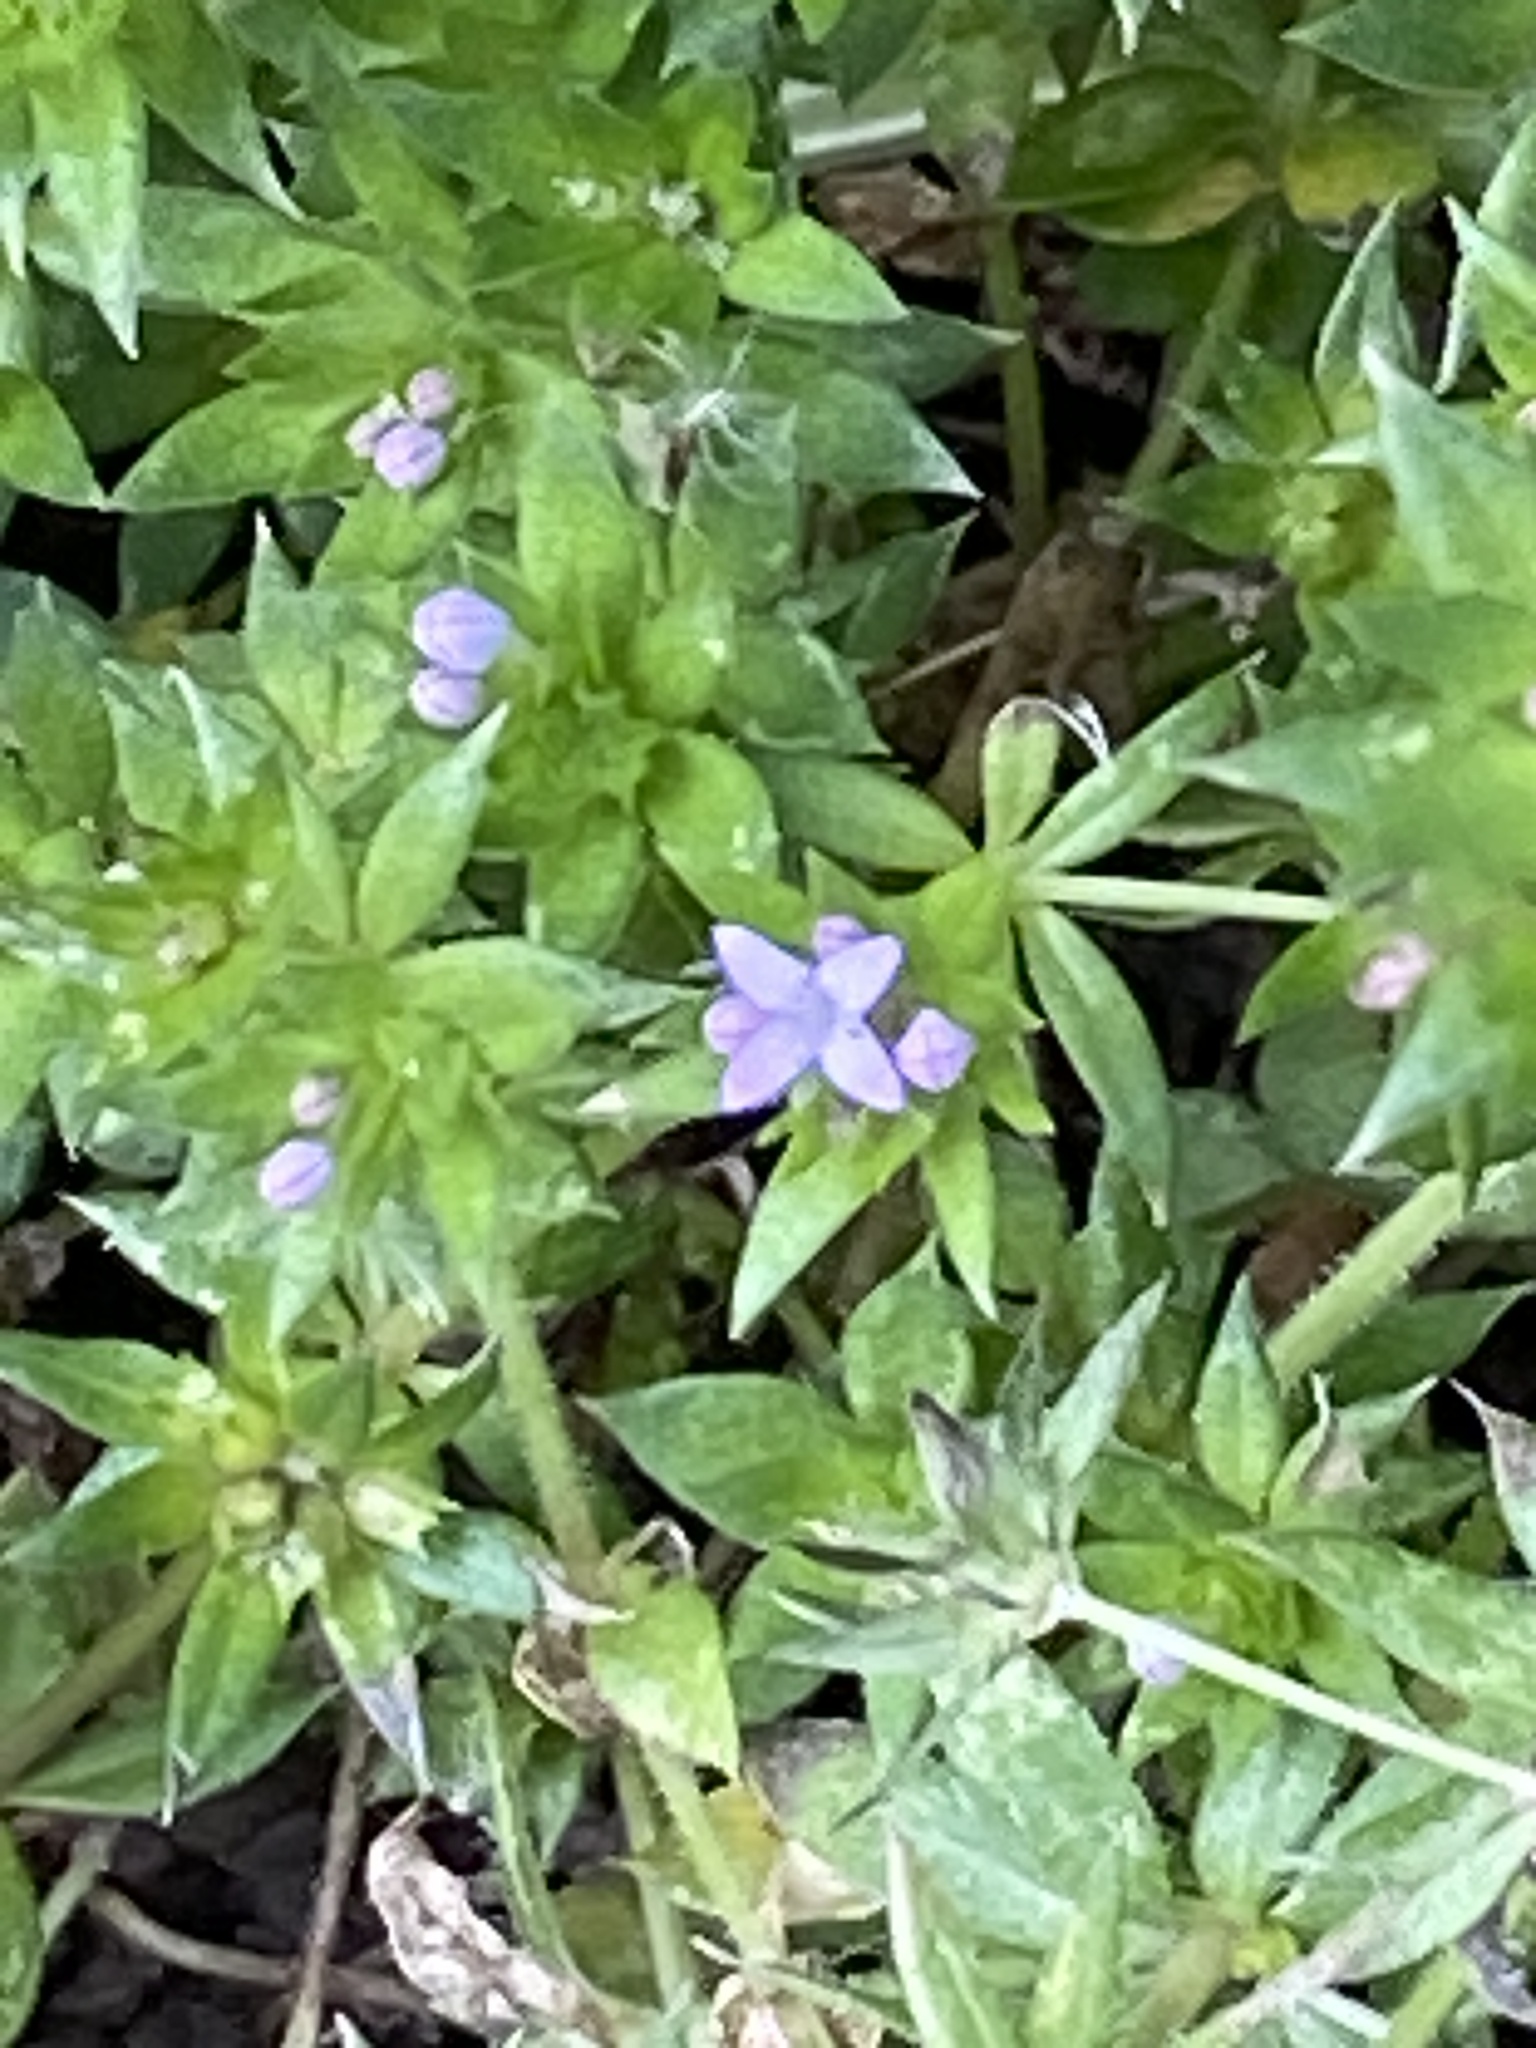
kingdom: Plantae
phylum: Tracheophyta
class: Magnoliopsida
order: Gentianales
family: Rubiaceae
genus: Sherardia
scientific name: Sherardia arvensis
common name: Field madder
